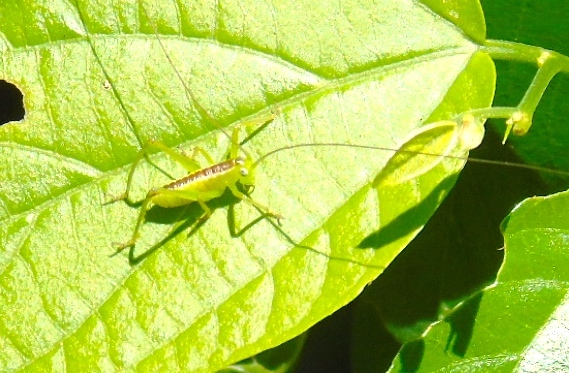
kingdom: Animalia
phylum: Arthropoda
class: Insecta
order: Orthoptera
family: Tettigoniidae
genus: Neobarrettia
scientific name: Neobarrettia sinaloae
